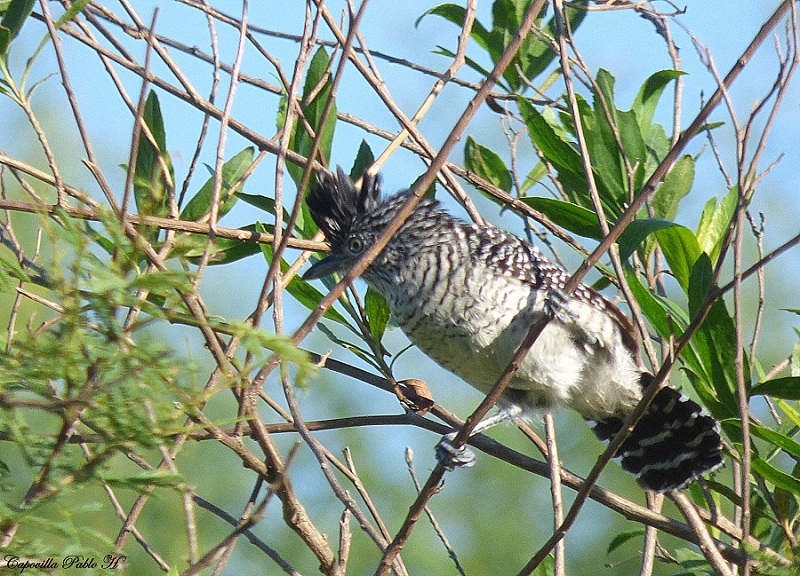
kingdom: Animalia
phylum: Chordata
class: Aves
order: Passeriformes
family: Thamnophilidae
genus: Thamnophilus
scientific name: Thamnophilus doliatus
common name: Barred antshrike
